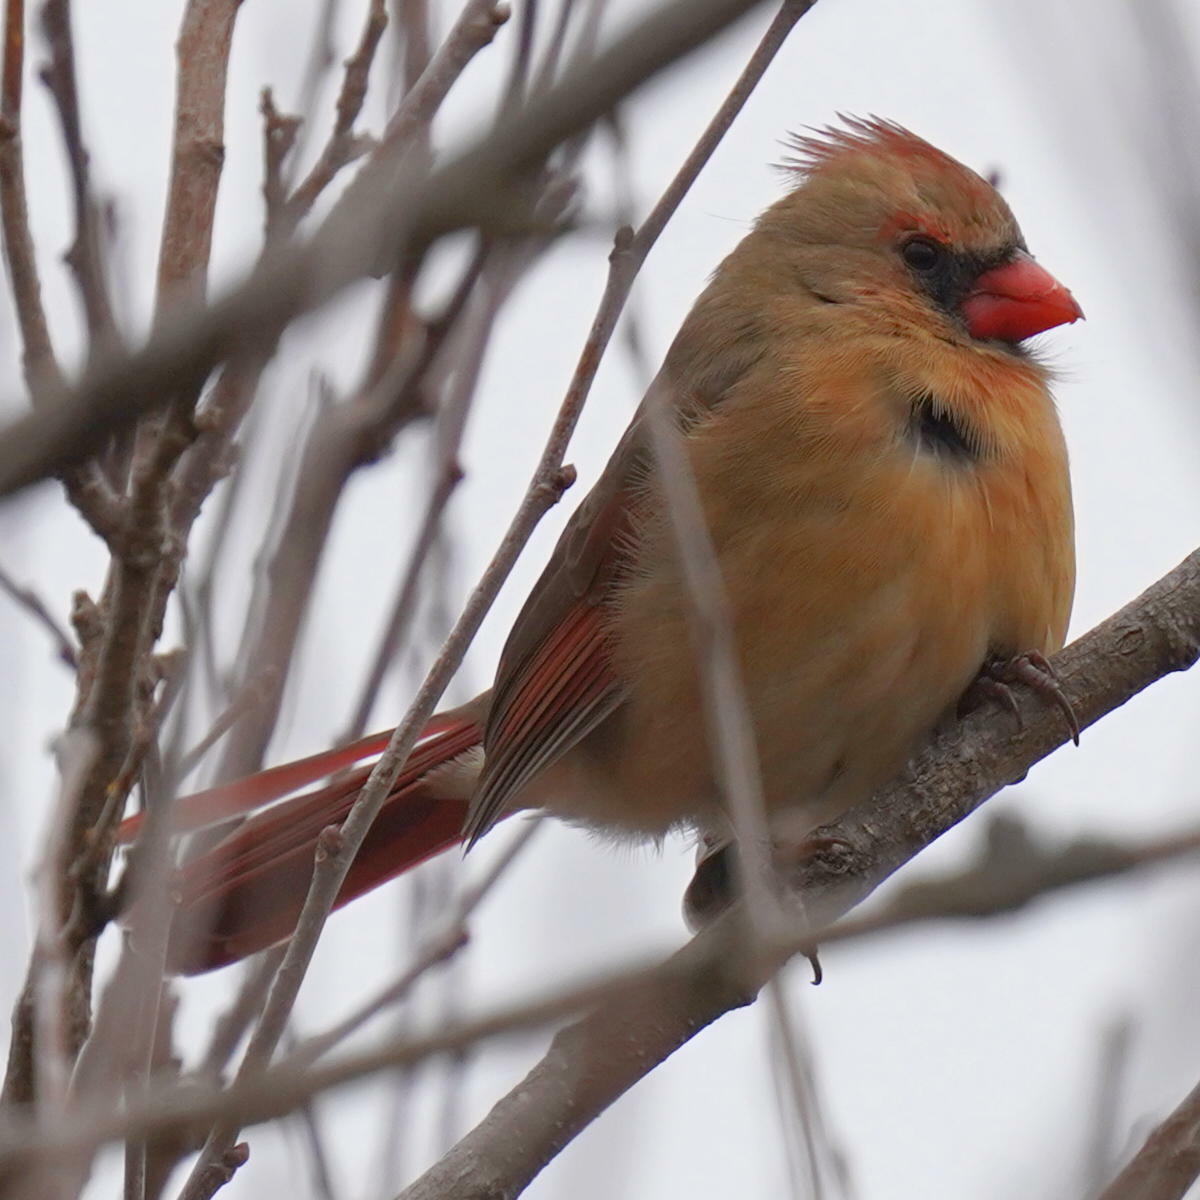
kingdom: Animalia
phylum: Chordata
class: Aves
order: Passeriformes
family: Cardinalidae
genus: Cardinalis
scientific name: Cardinalis cardinalis
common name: Northern cardinal
